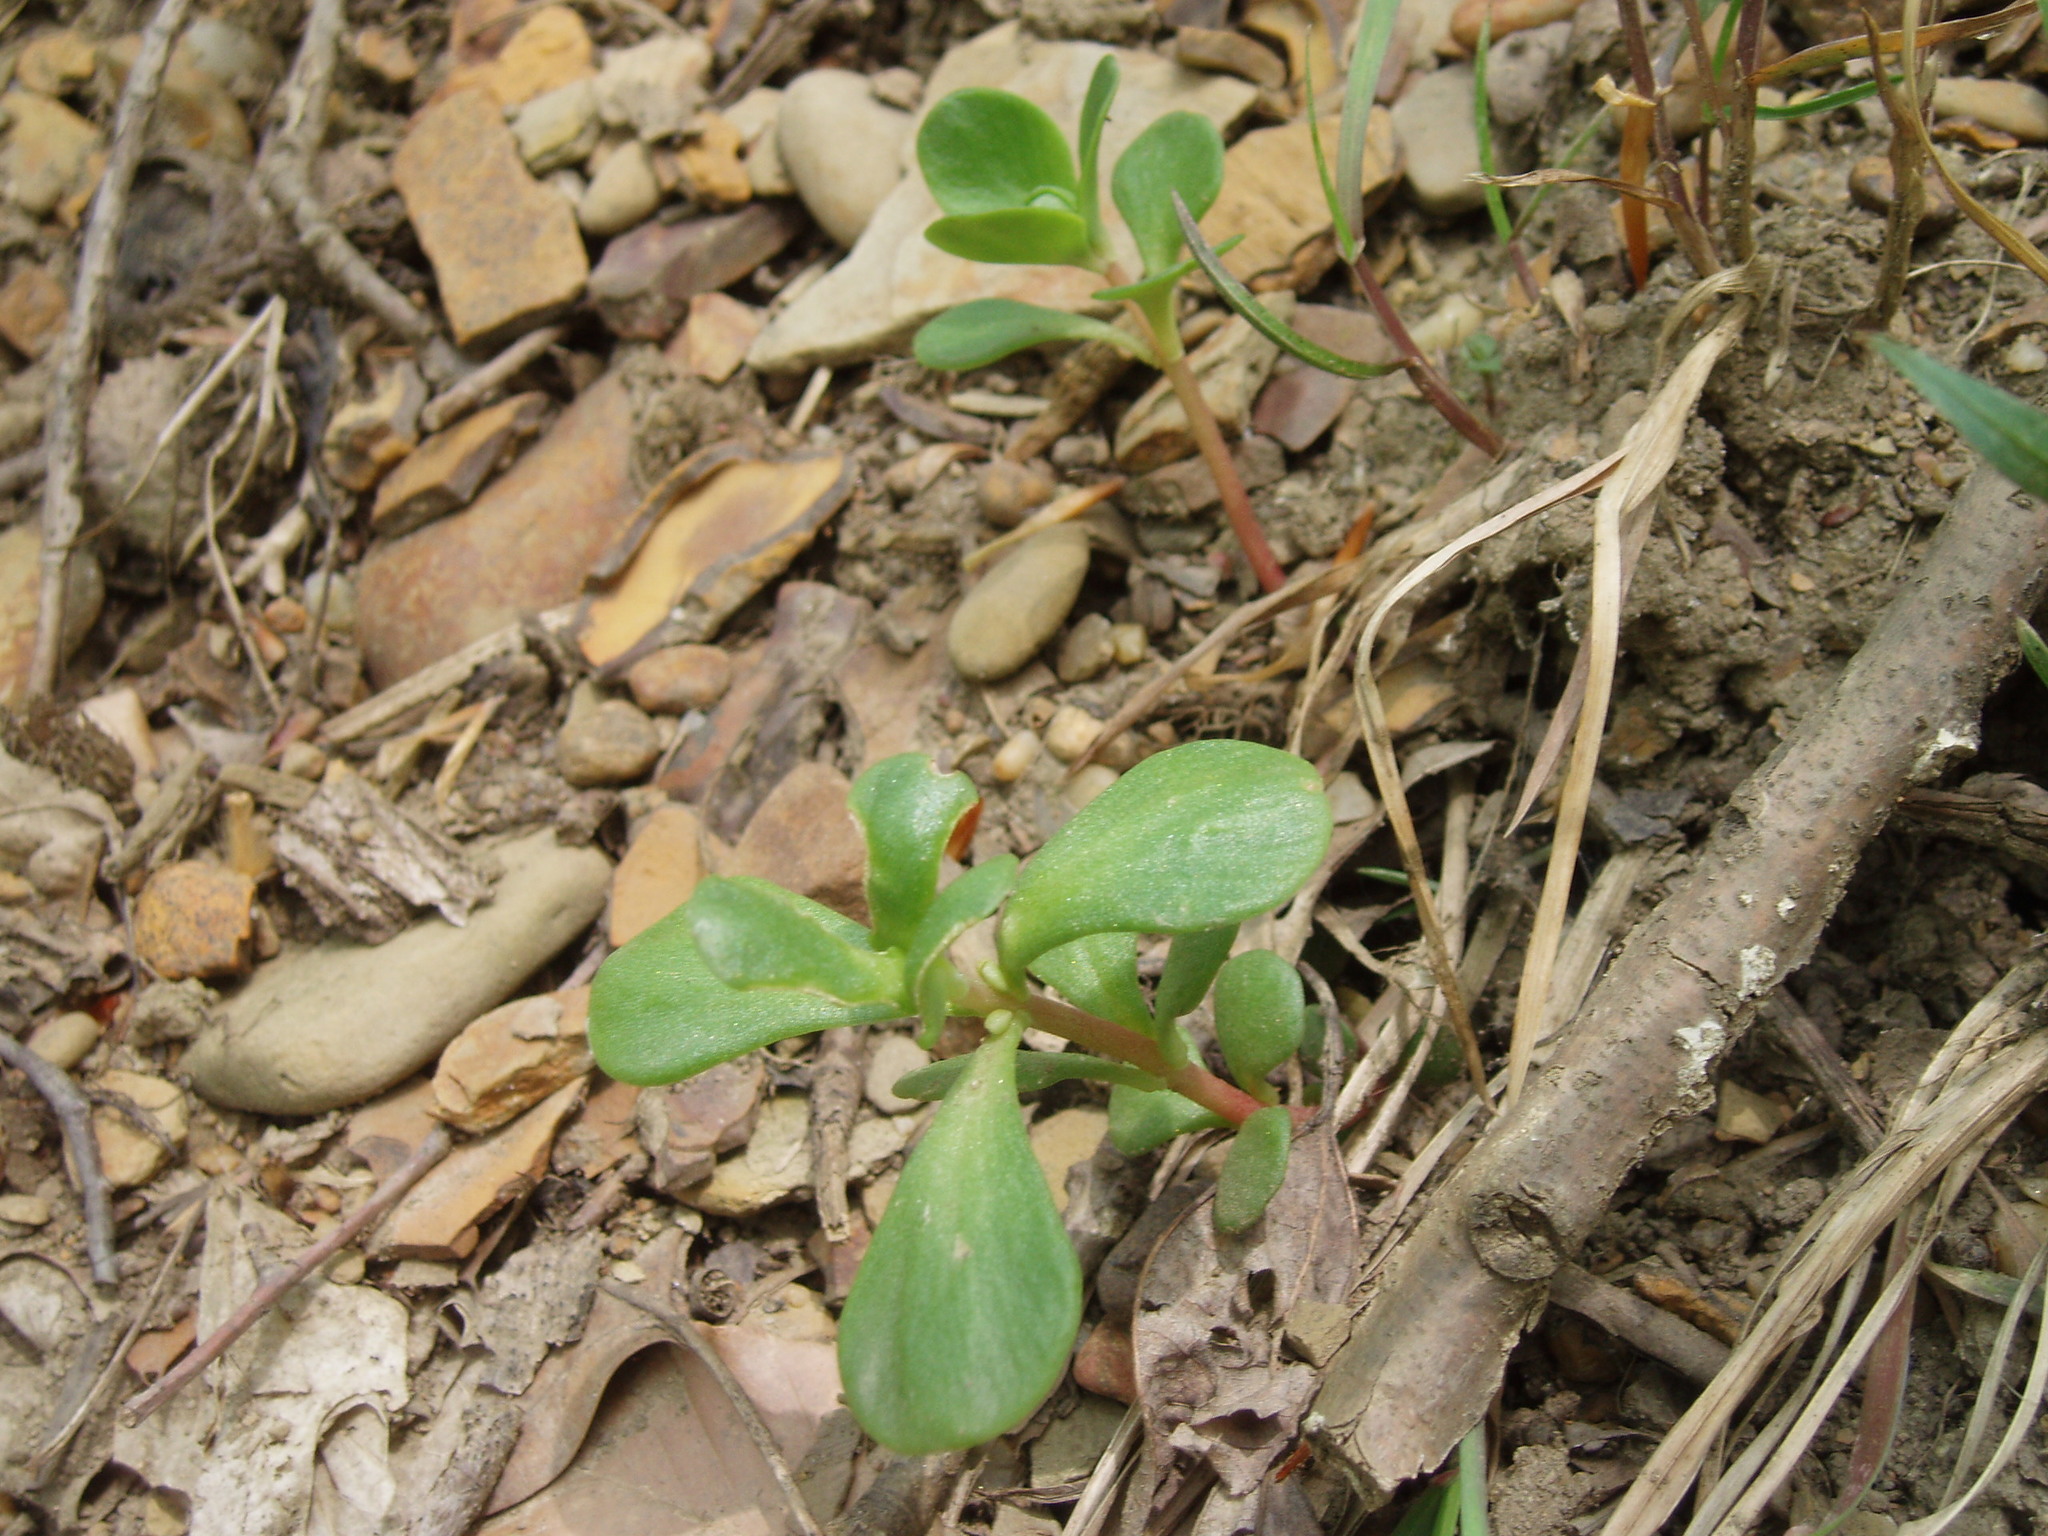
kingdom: Plantae
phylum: Tracheophyta
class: Magnoliopsida
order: Saxifragales
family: Crassulaceae
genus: Sedum
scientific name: Sedum ternatum
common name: Wild stonecrop
